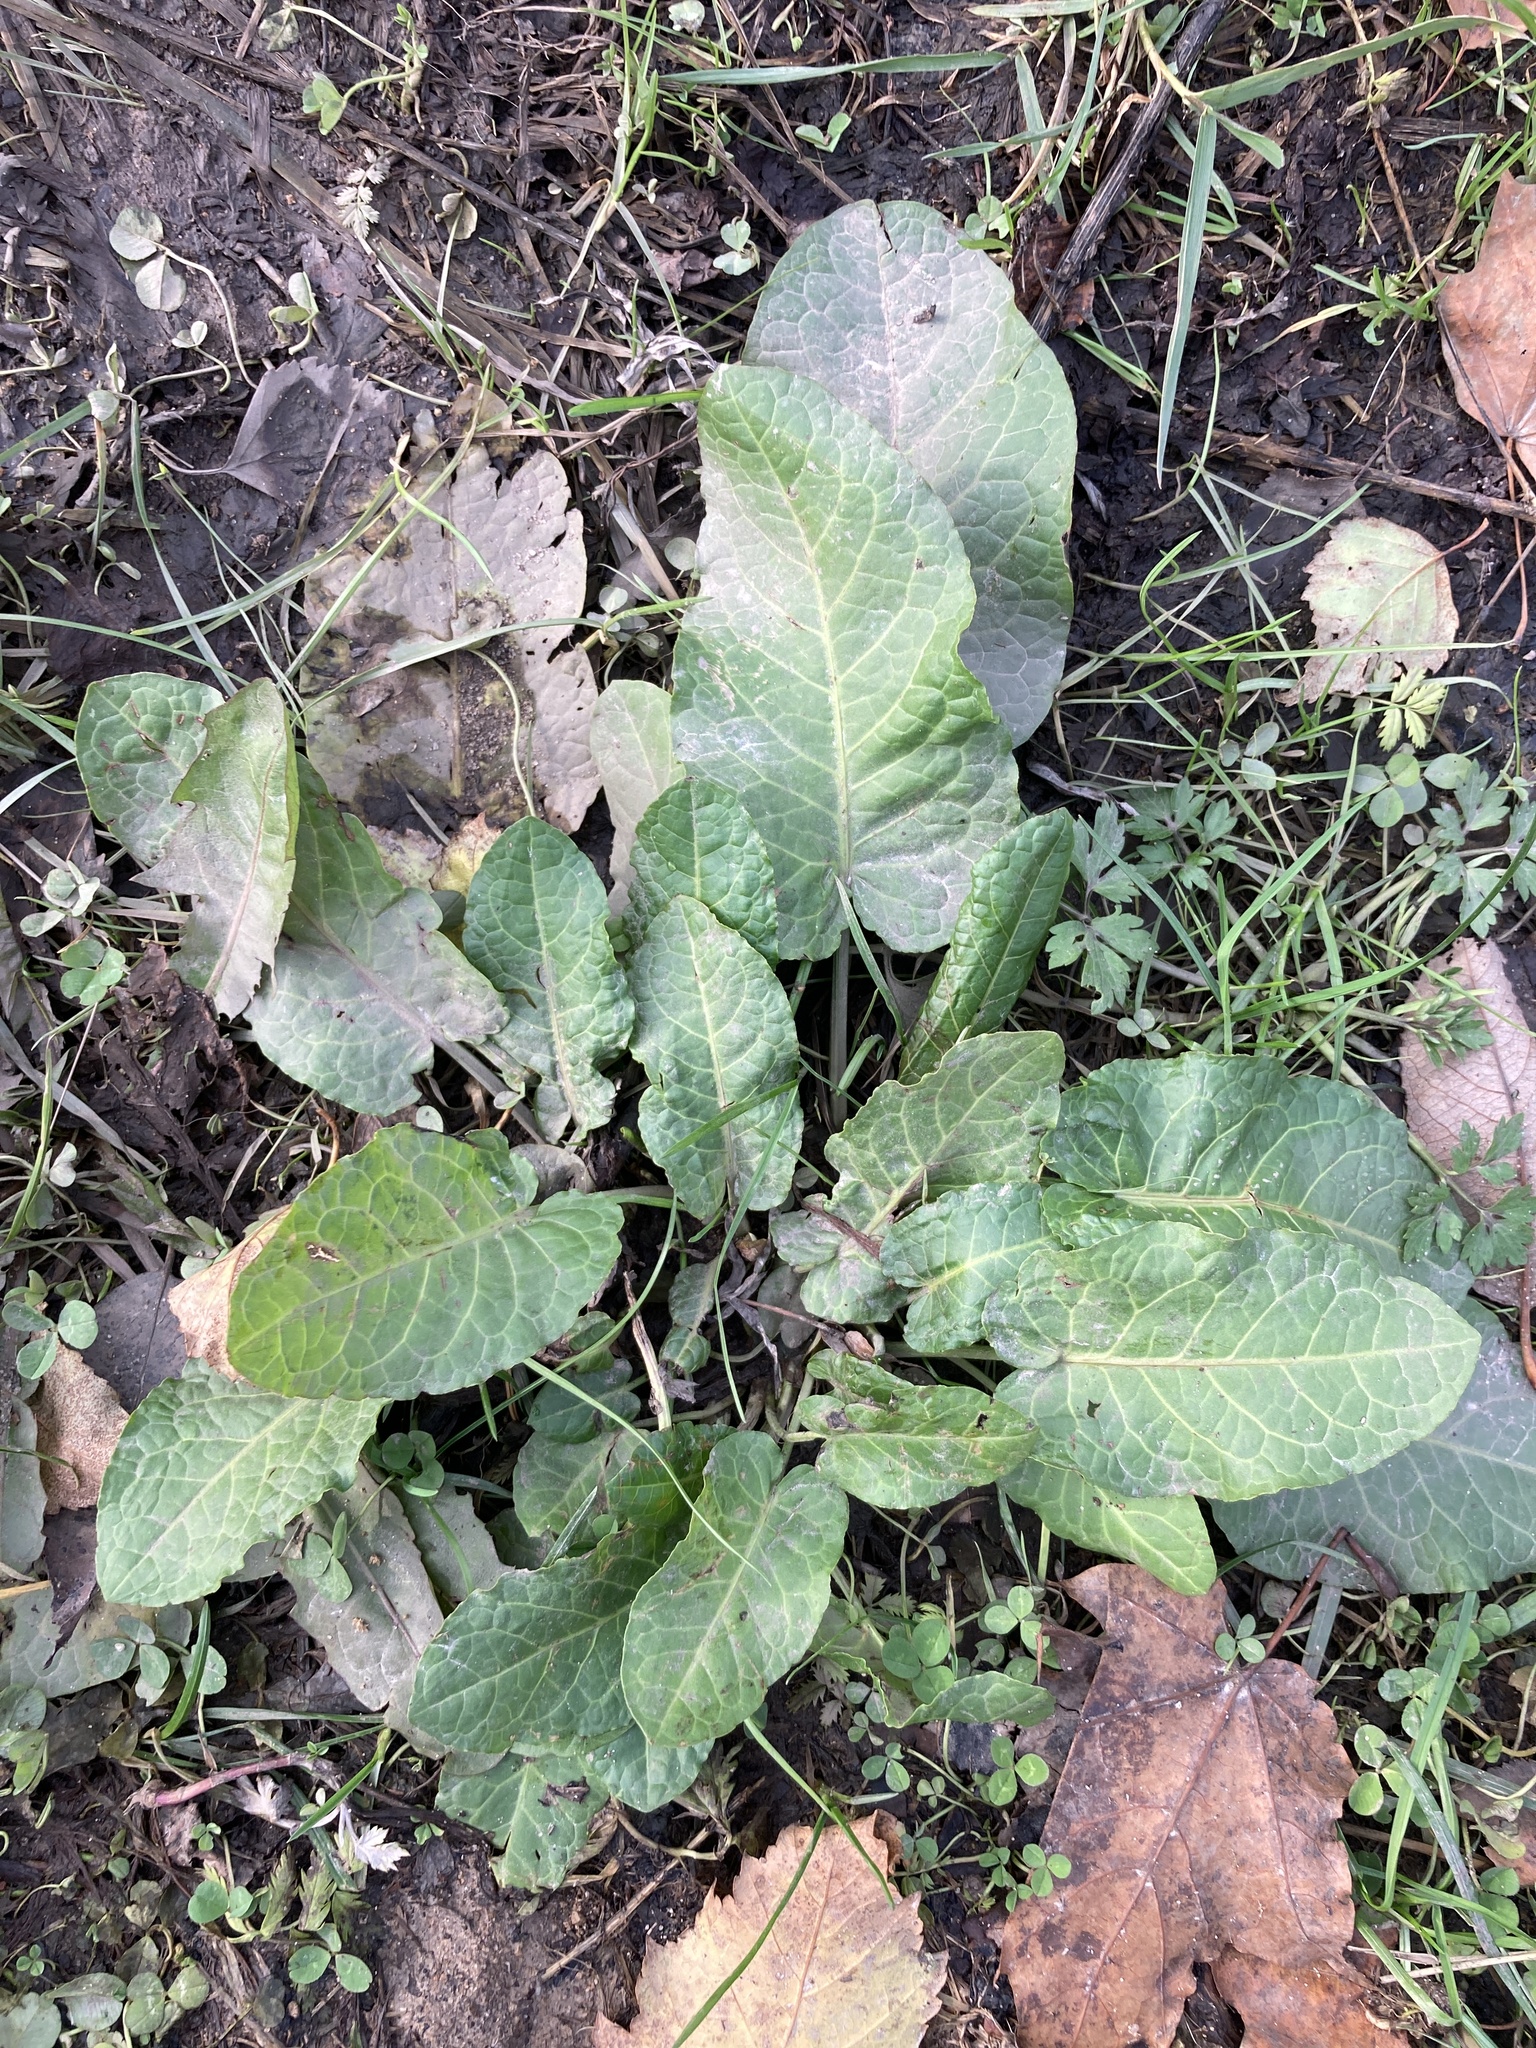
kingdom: Plantae
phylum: Tracheophyta
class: Magnoliopsida
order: Caryophyllales
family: Polygonaceae
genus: Rumex
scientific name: Rumex obtusifolius
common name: Bitter dock
